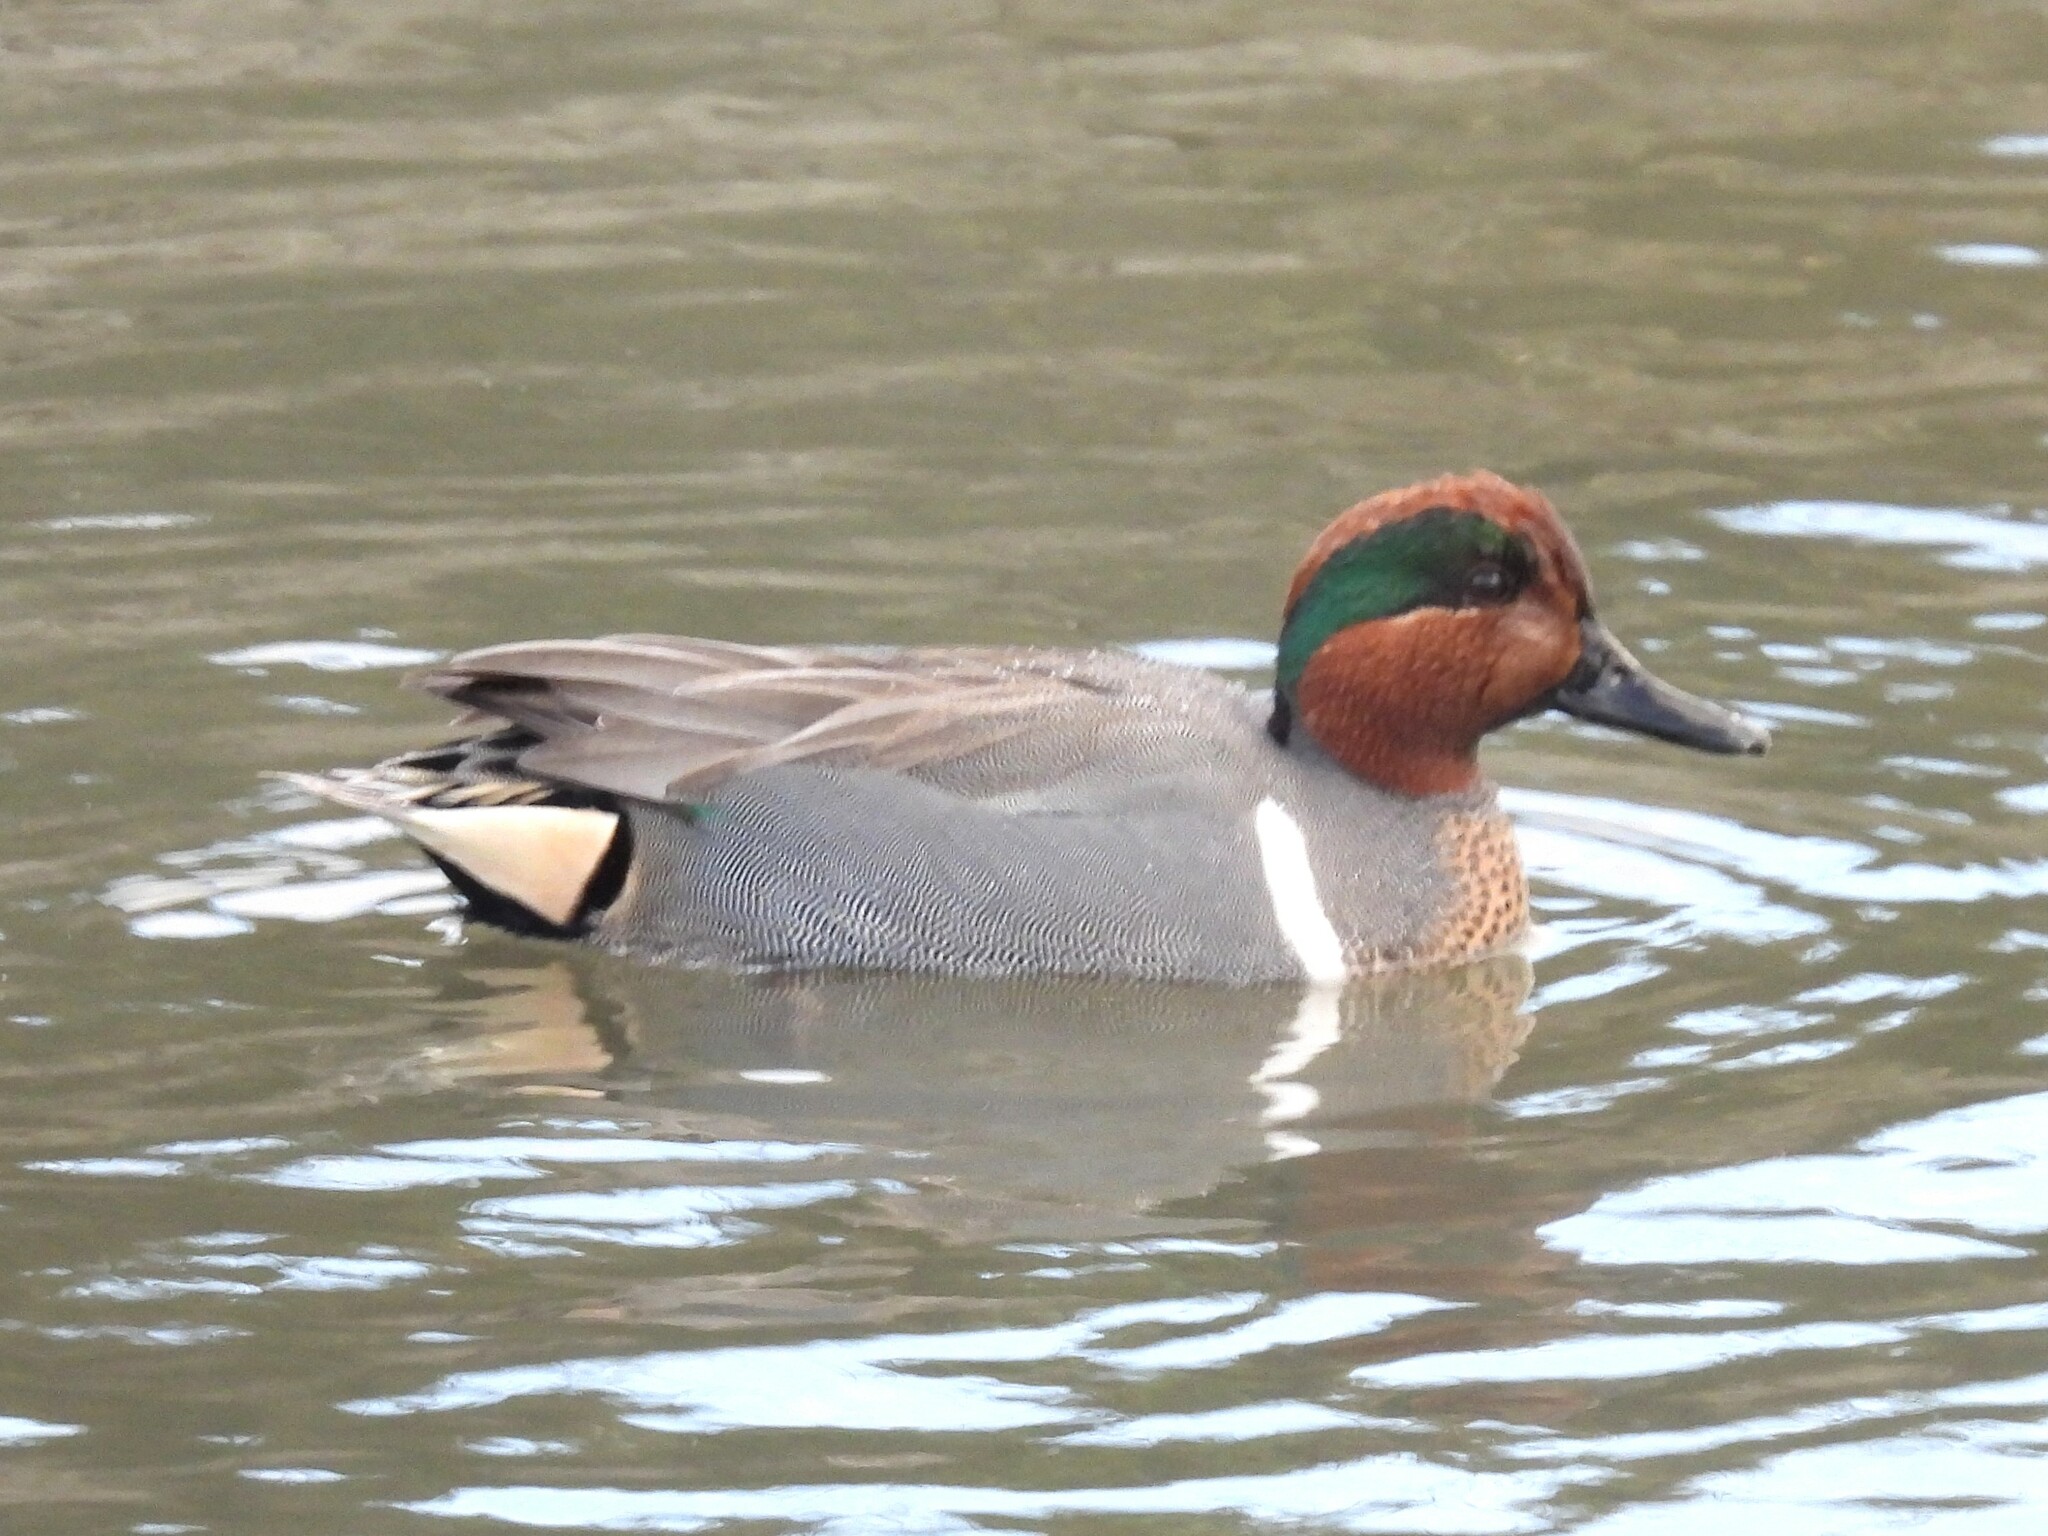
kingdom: Animalia
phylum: Chordata
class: Aves
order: Anseriformes
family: Anatidae
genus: Anas
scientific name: Anas carolinensis
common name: Green-winged teal
